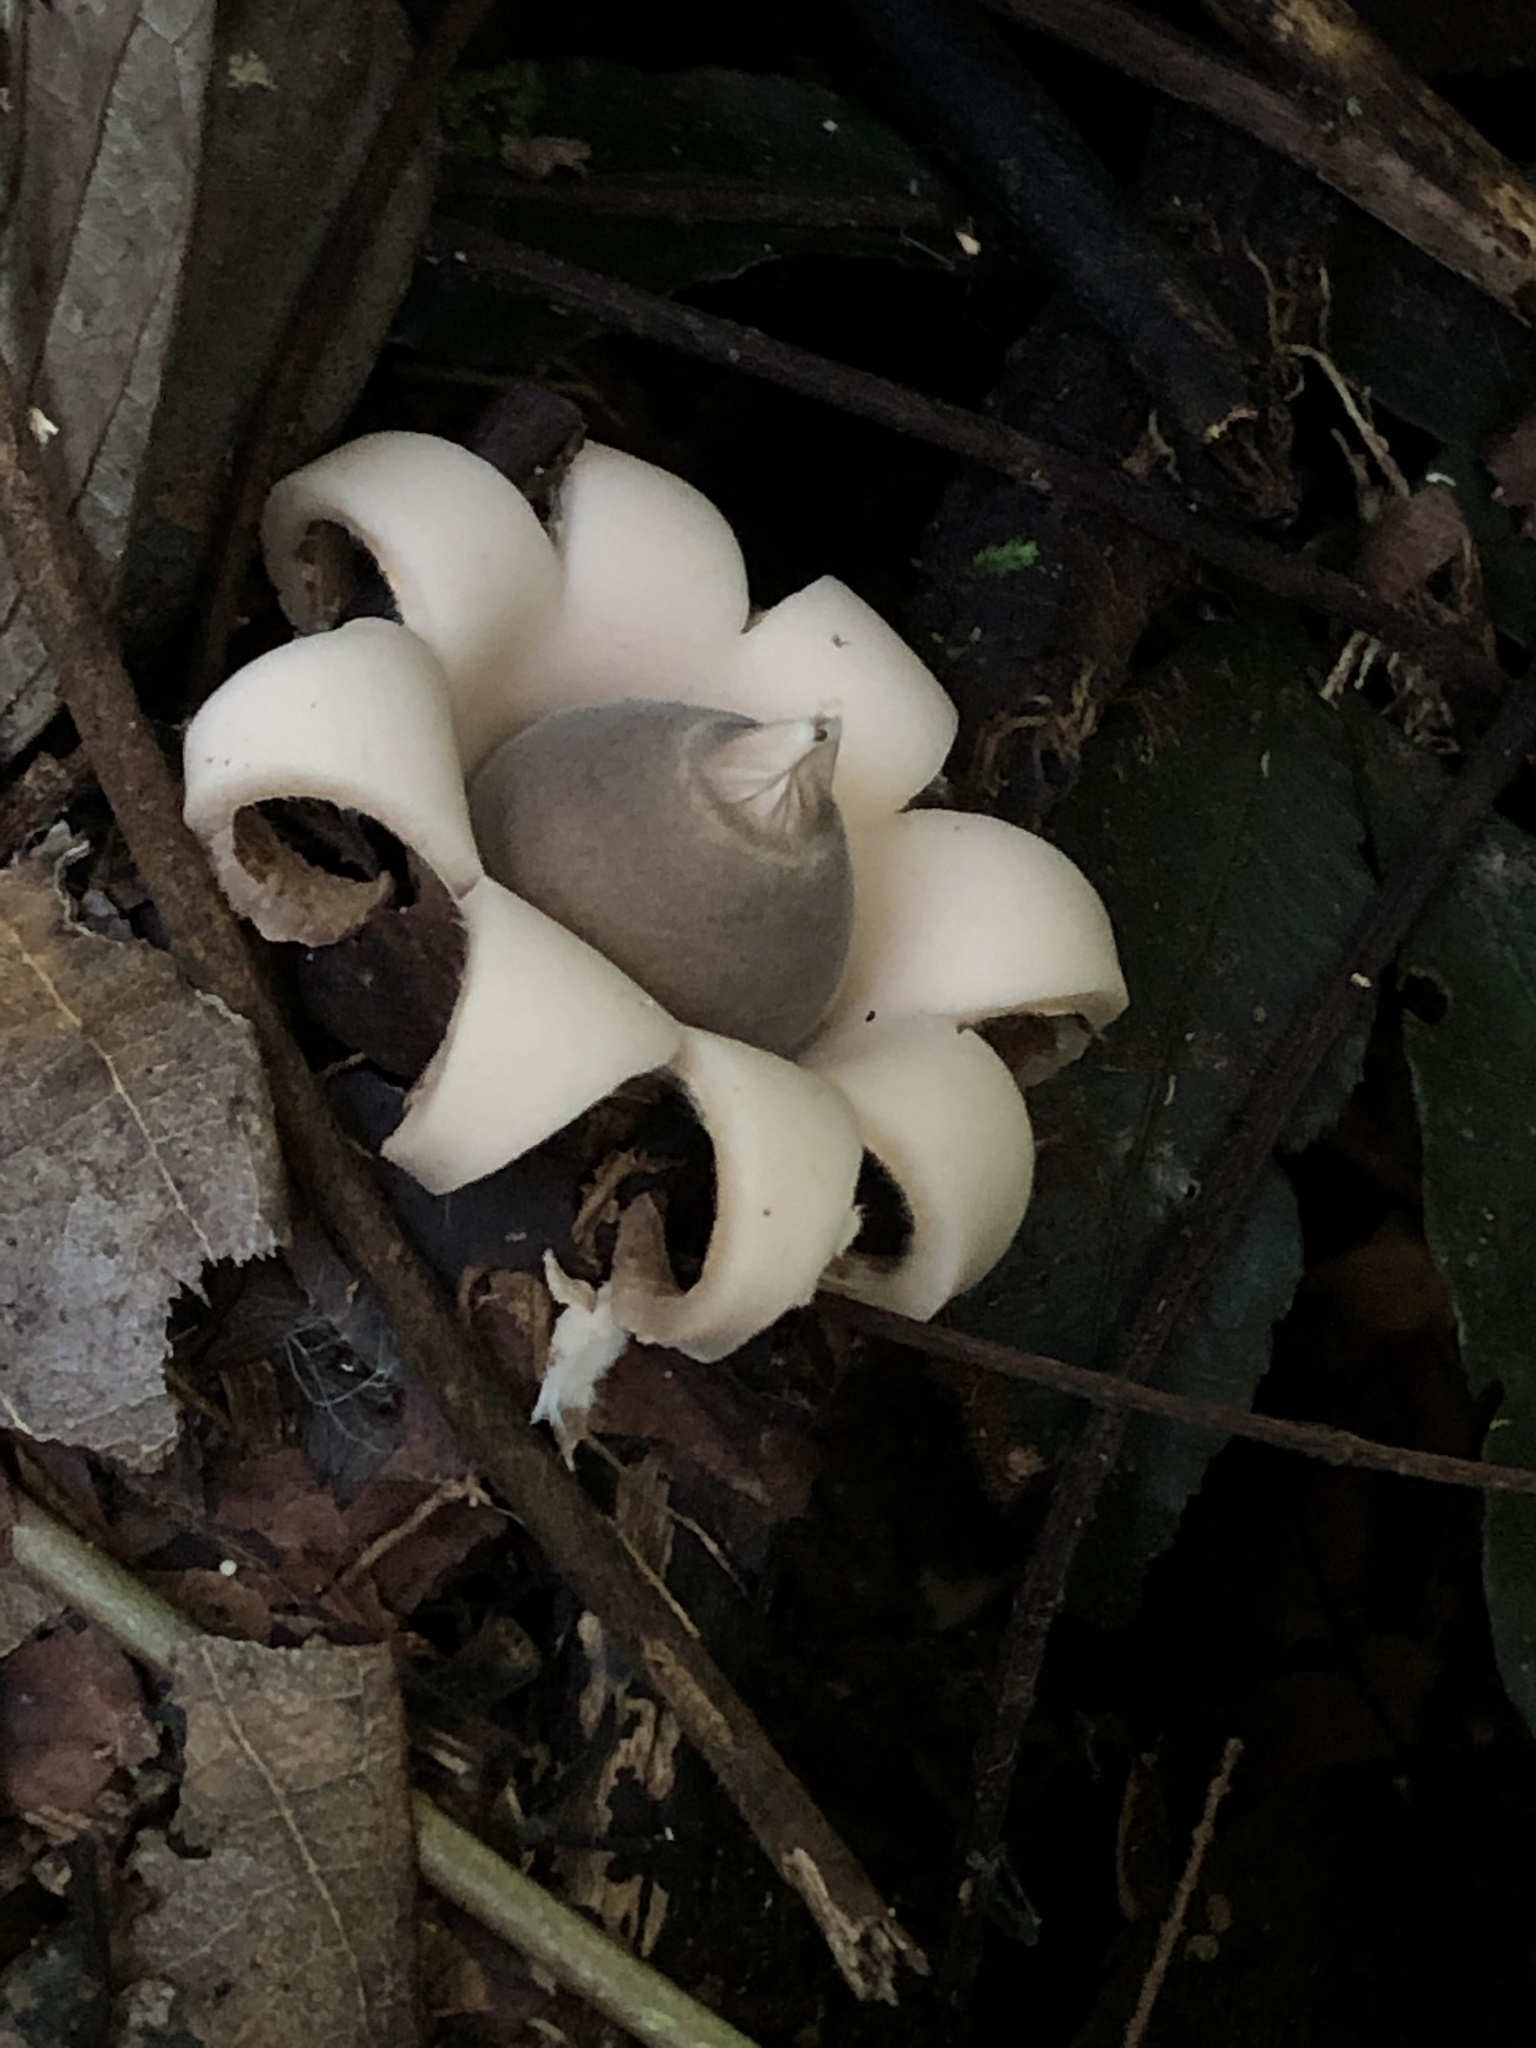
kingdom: Fungi
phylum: Basidiomycota
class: Agaricomycetes
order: Geastrales
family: Geastraceae
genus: Geastrum
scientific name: Geastrum saccatum
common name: Rounded earthstar
